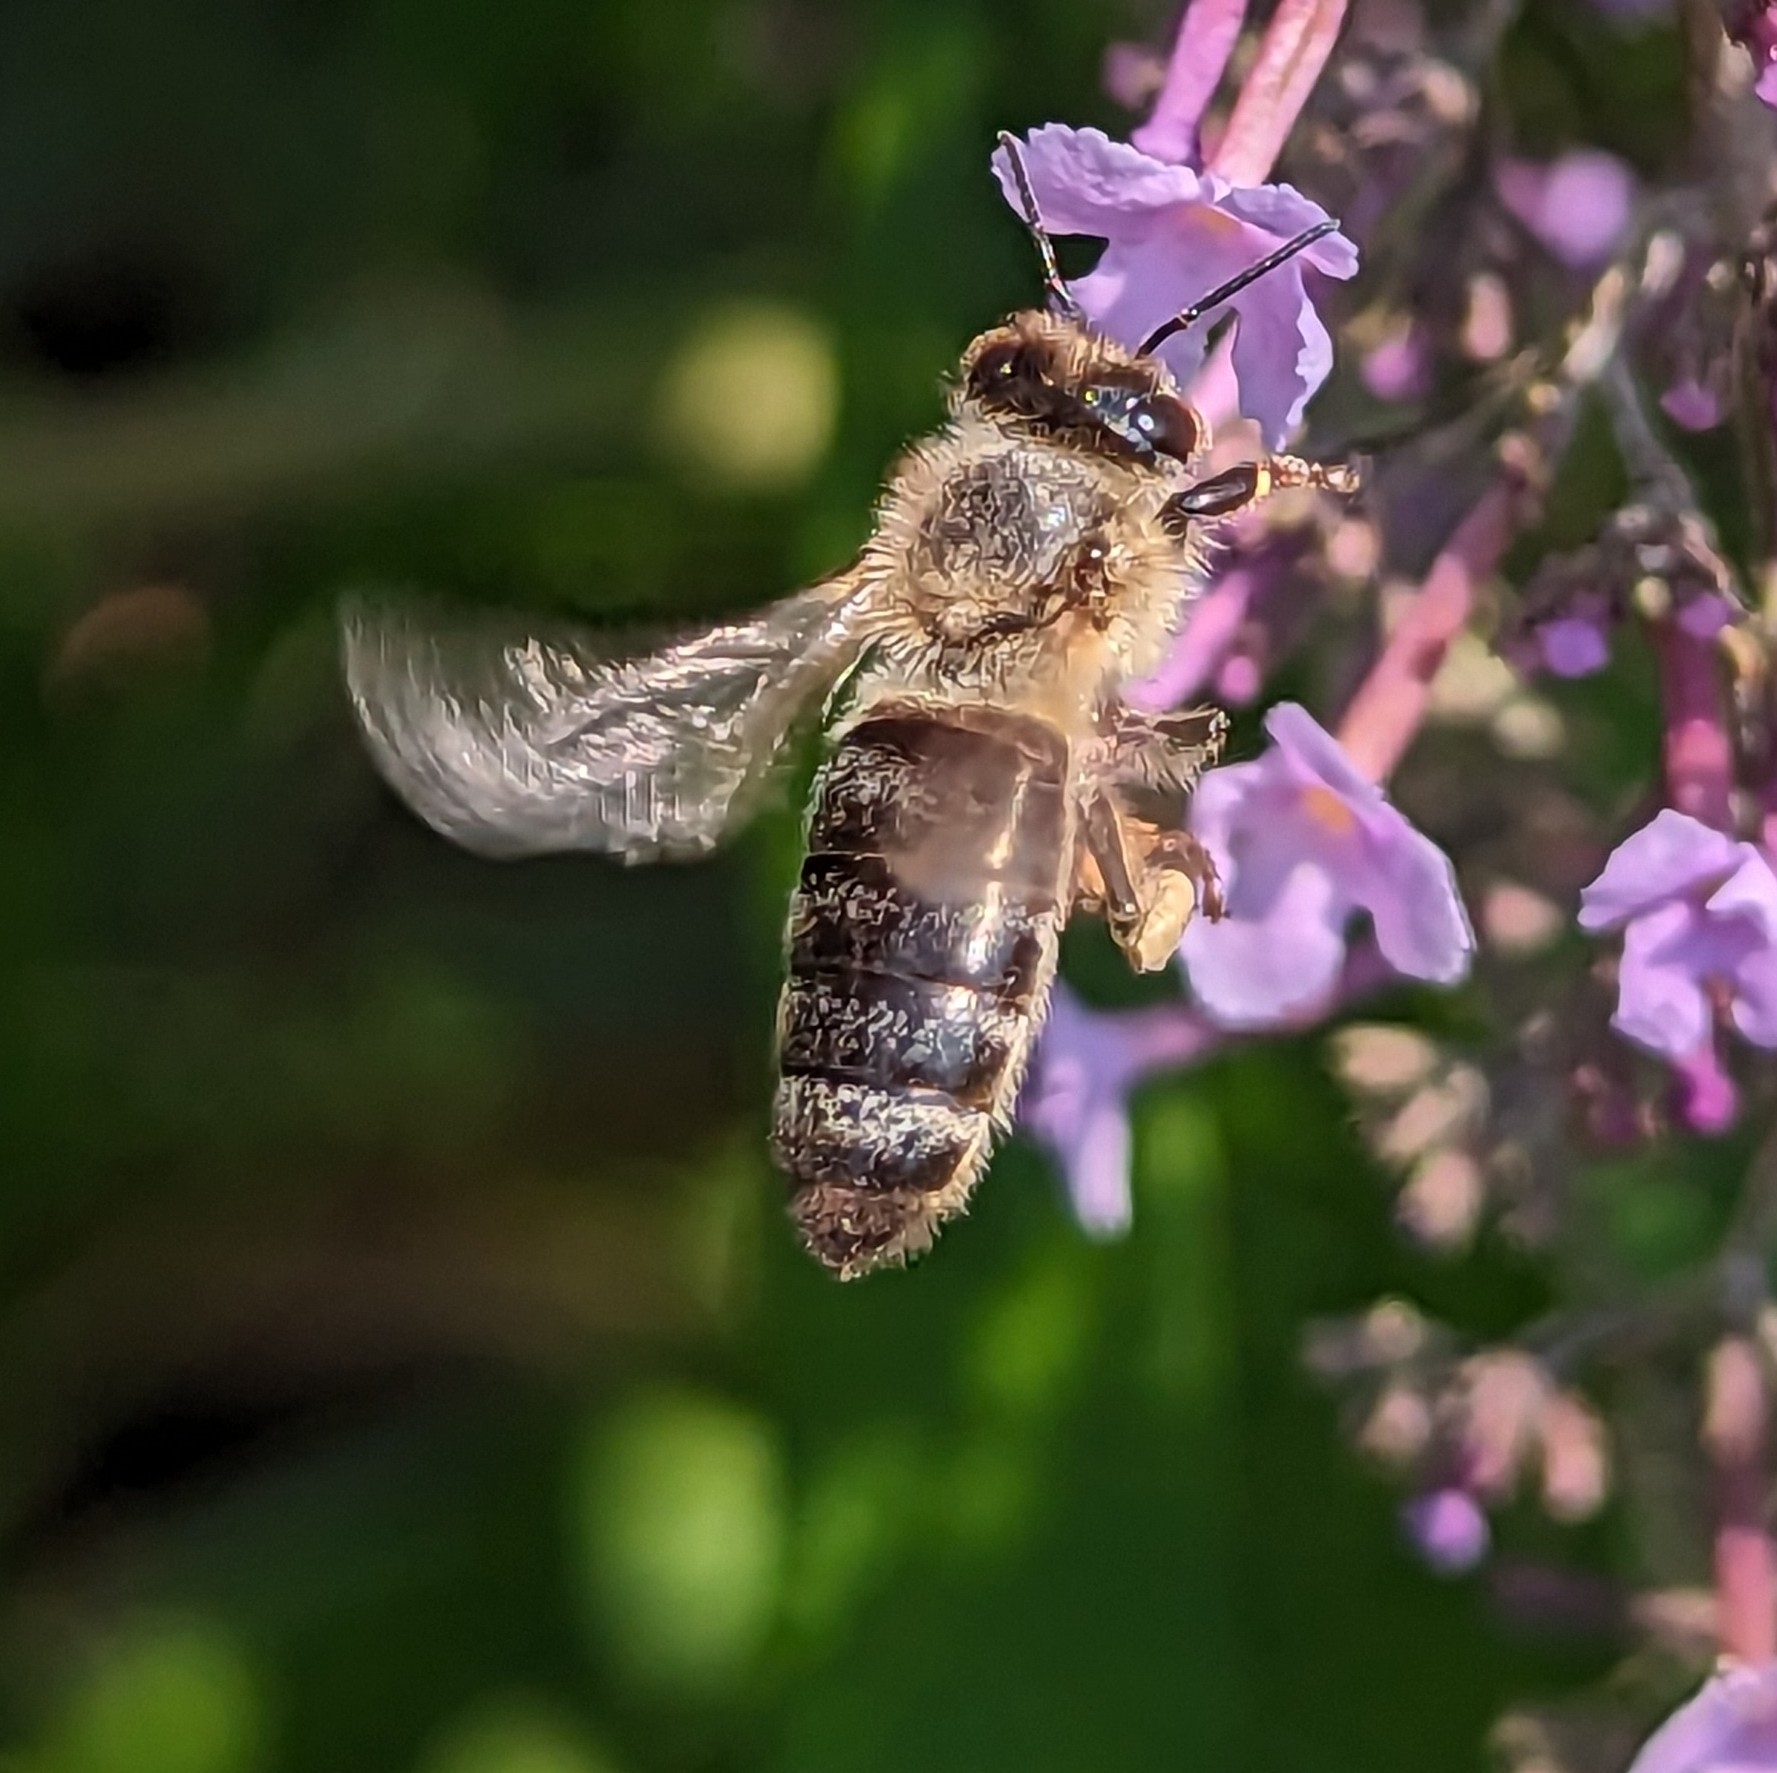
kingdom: Animalia
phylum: Arthropoda
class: Insecta
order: Hymenoptera
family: Apidae
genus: Apis
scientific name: Apis mellifera
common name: Honey bee
